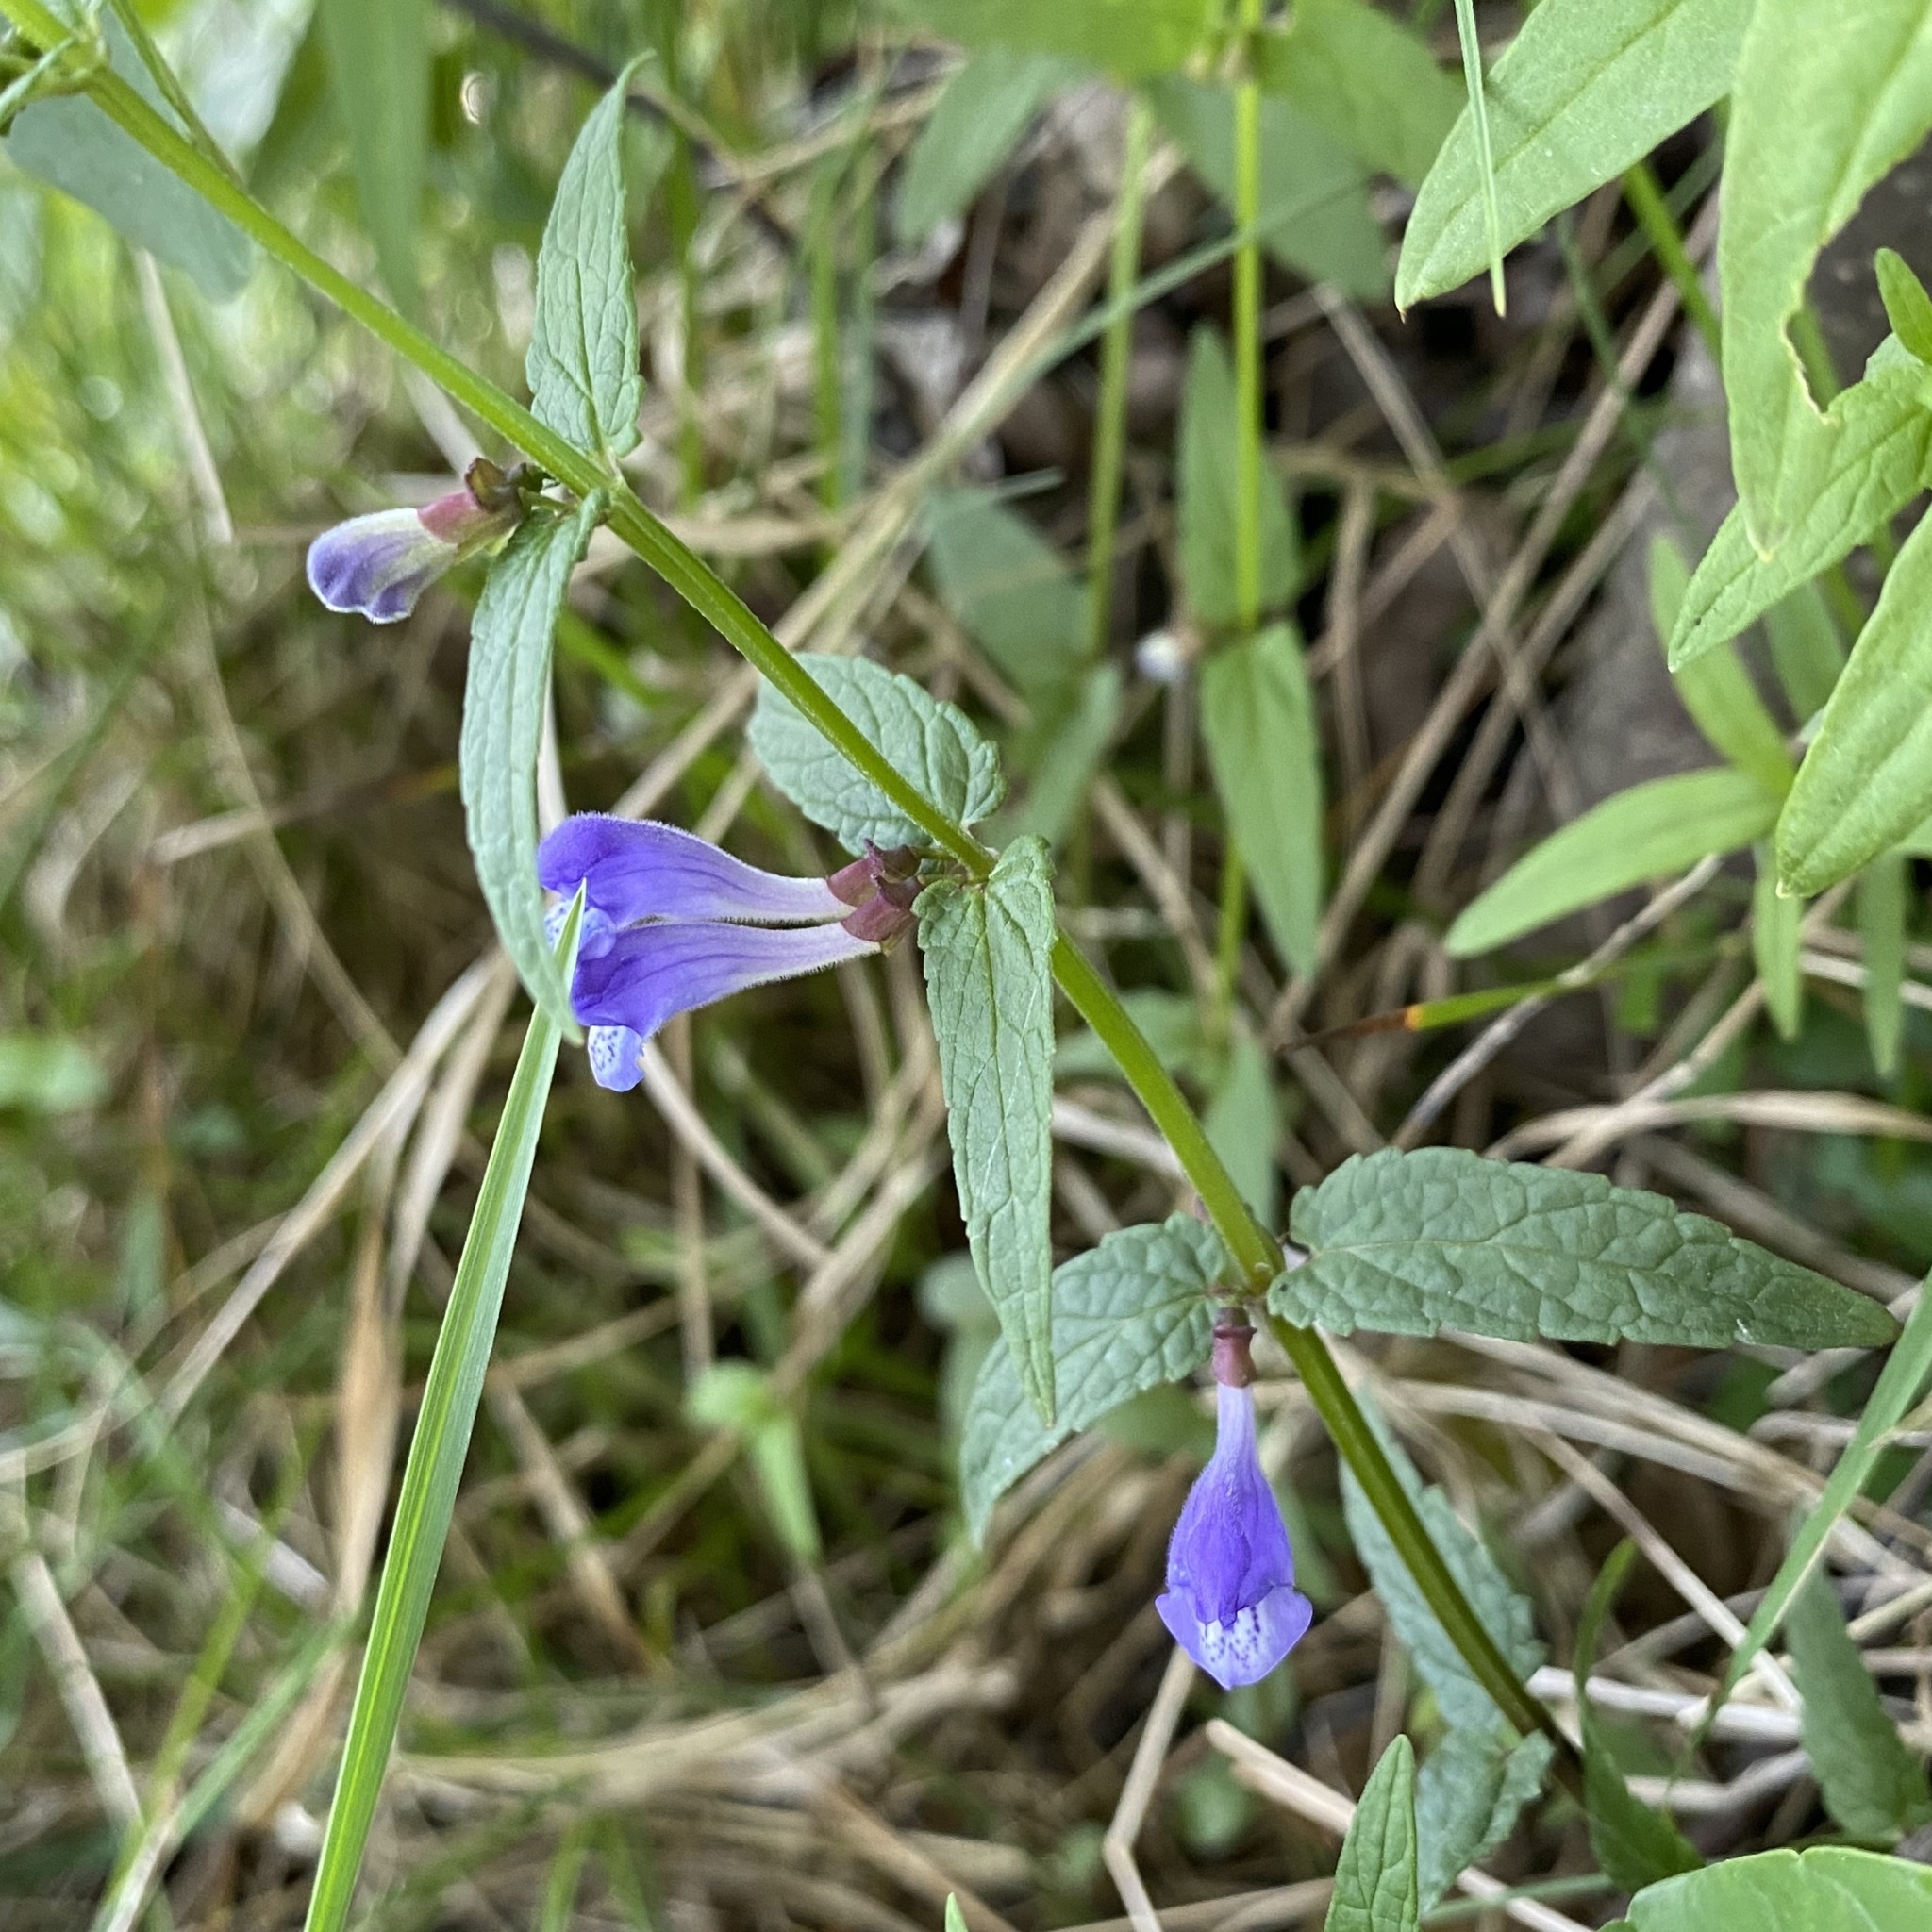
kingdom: Plantae
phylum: Tracheophyta
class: Magnoliopsida
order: Lamiales
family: Lamiaceae
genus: Scutellaria
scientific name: Scutellaria galericulata
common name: Skullcap
